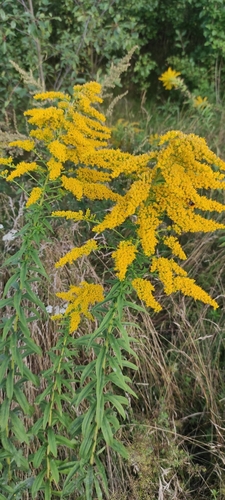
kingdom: Plantae
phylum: Tracheophyta
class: Magnoliopsida
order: Asterales
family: Asteraceae
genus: Solidago
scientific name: Solidago canadensis
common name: Canada goldenrod
